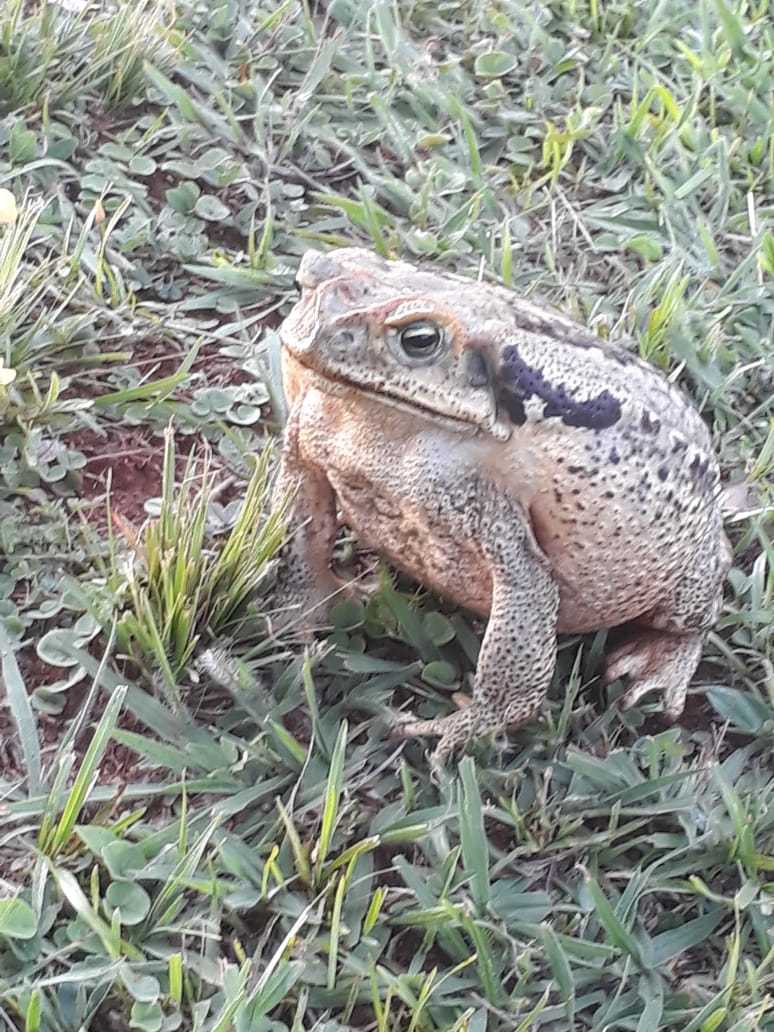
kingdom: Animalia
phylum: Chordata
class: Amphibia
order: Anura
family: Bufonidae
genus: Rhinella
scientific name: Rhinella diptycha
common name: Cope's toad
